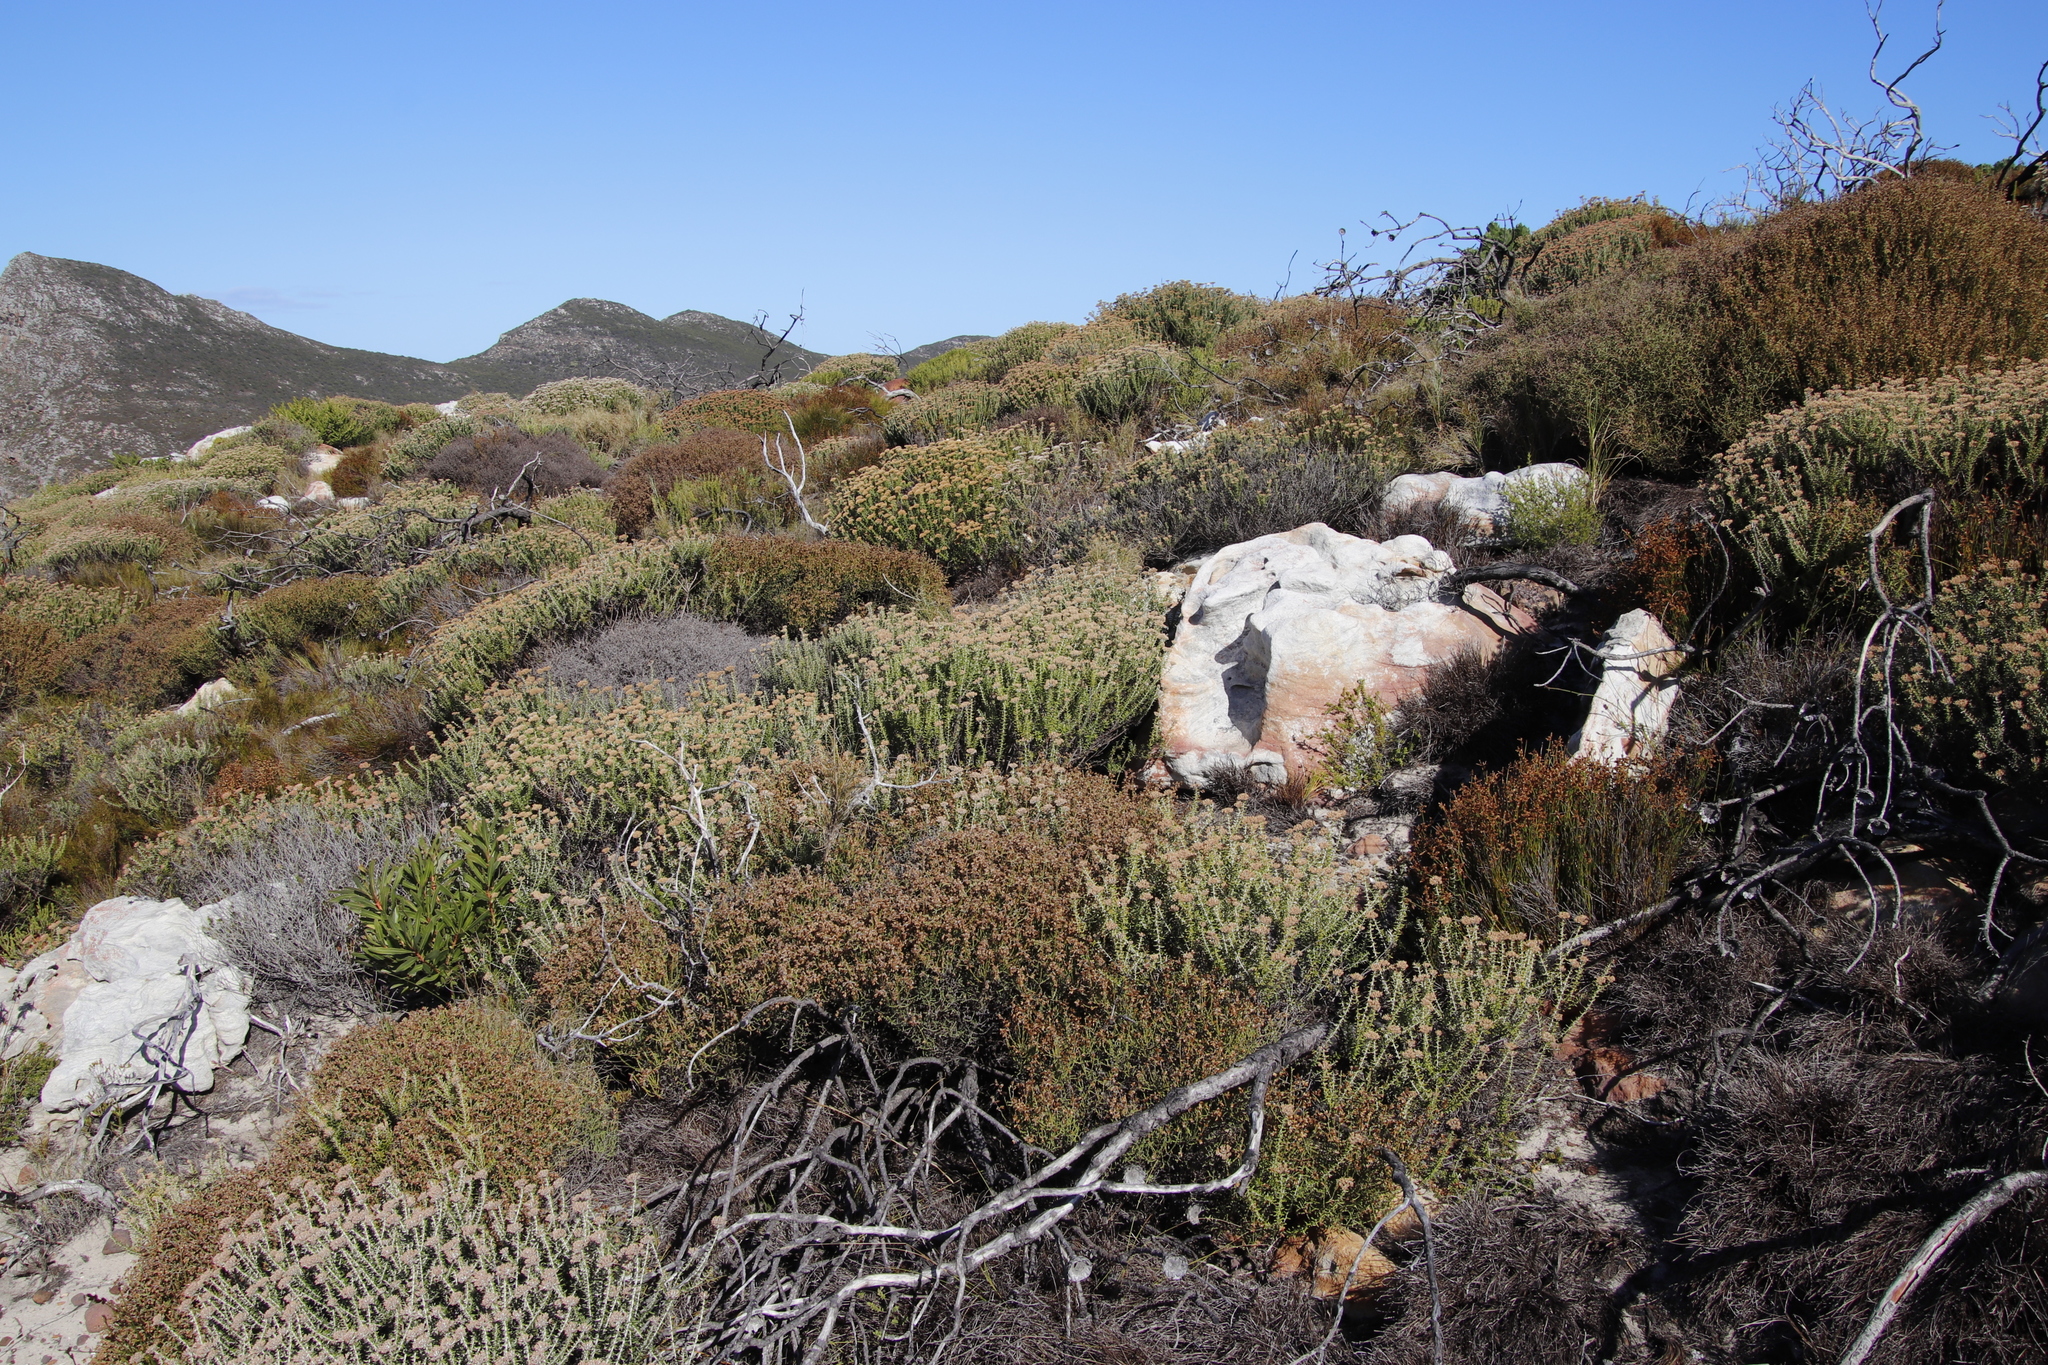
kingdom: Plantae
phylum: Tracheophyta
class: Magnoliopsida
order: Asterales
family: Asteraceae
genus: Metalasia
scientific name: Metalasia densa
